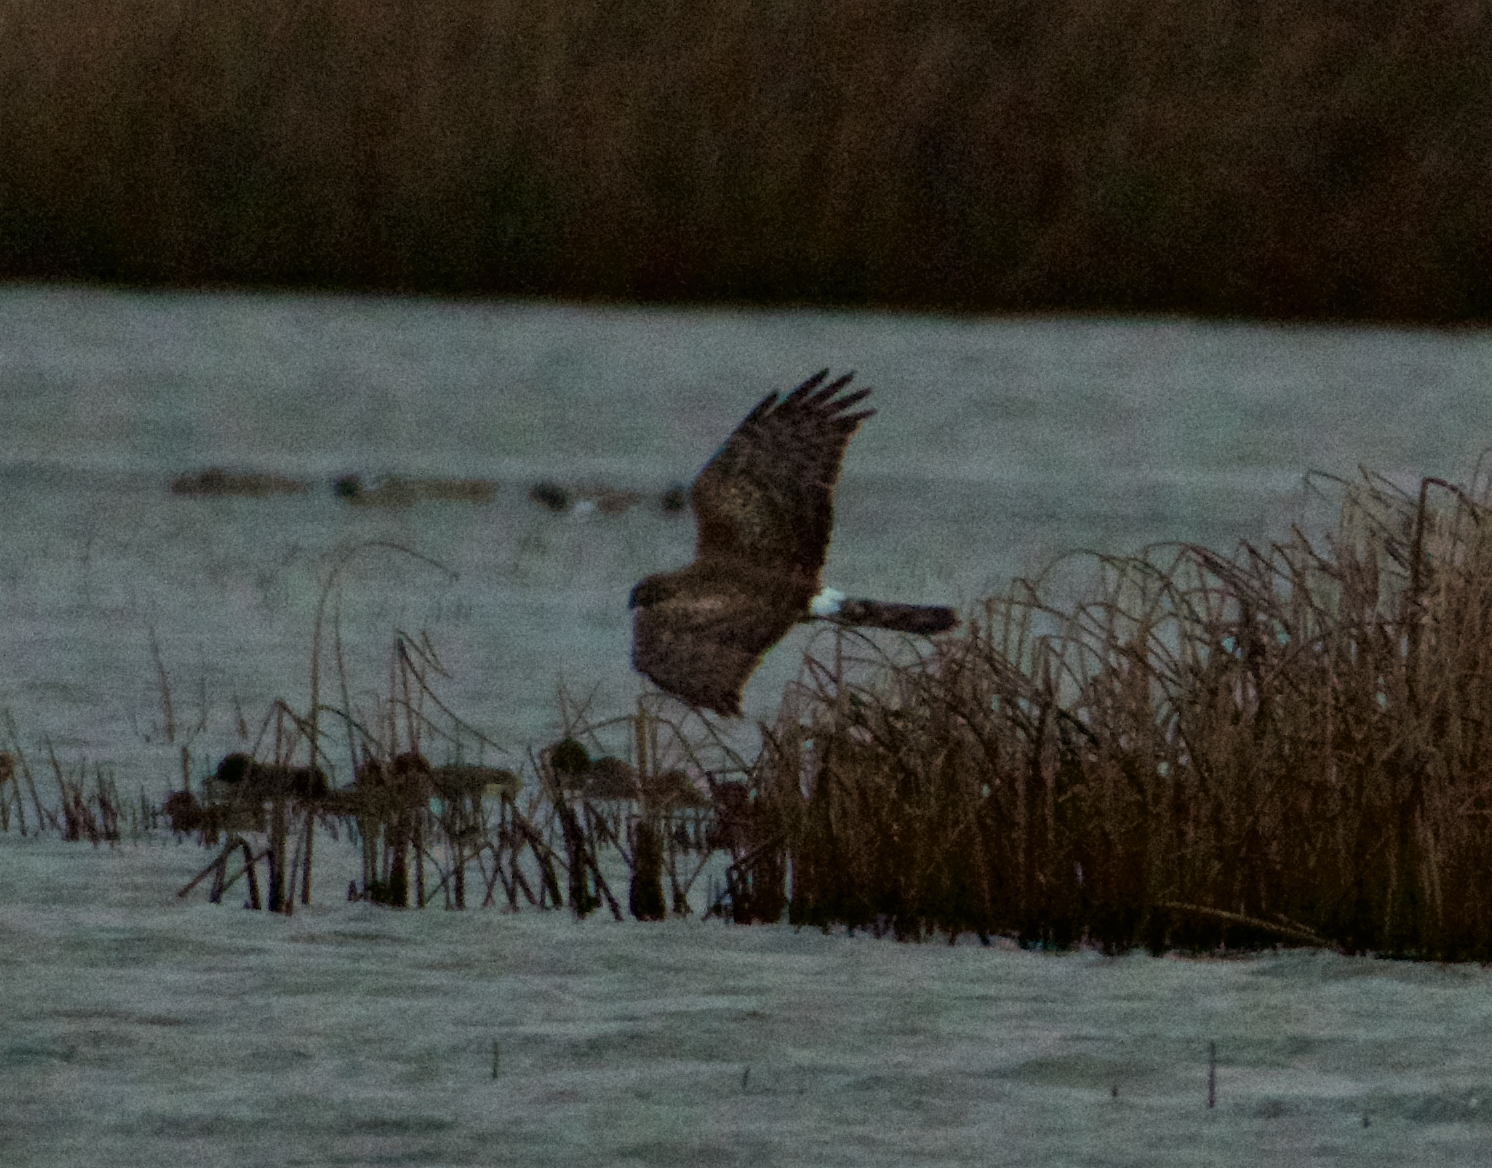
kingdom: Animalia
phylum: Chordata
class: Aves
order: Accipitriformes
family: Accipitridae
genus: Circus
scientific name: Circus cyaneus
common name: Hen harrier
